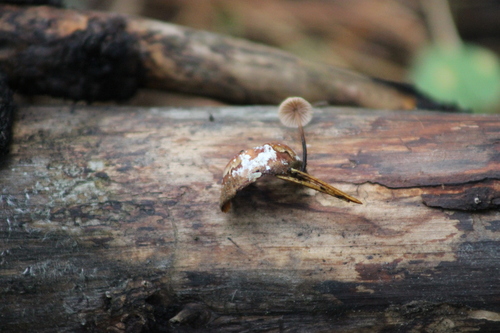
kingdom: Fungi
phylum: Basidiomycota
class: Agaricomycetes
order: Agaricales
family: Omphalotaceae
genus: Paragymnopus
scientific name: Paragymnopus perforans
